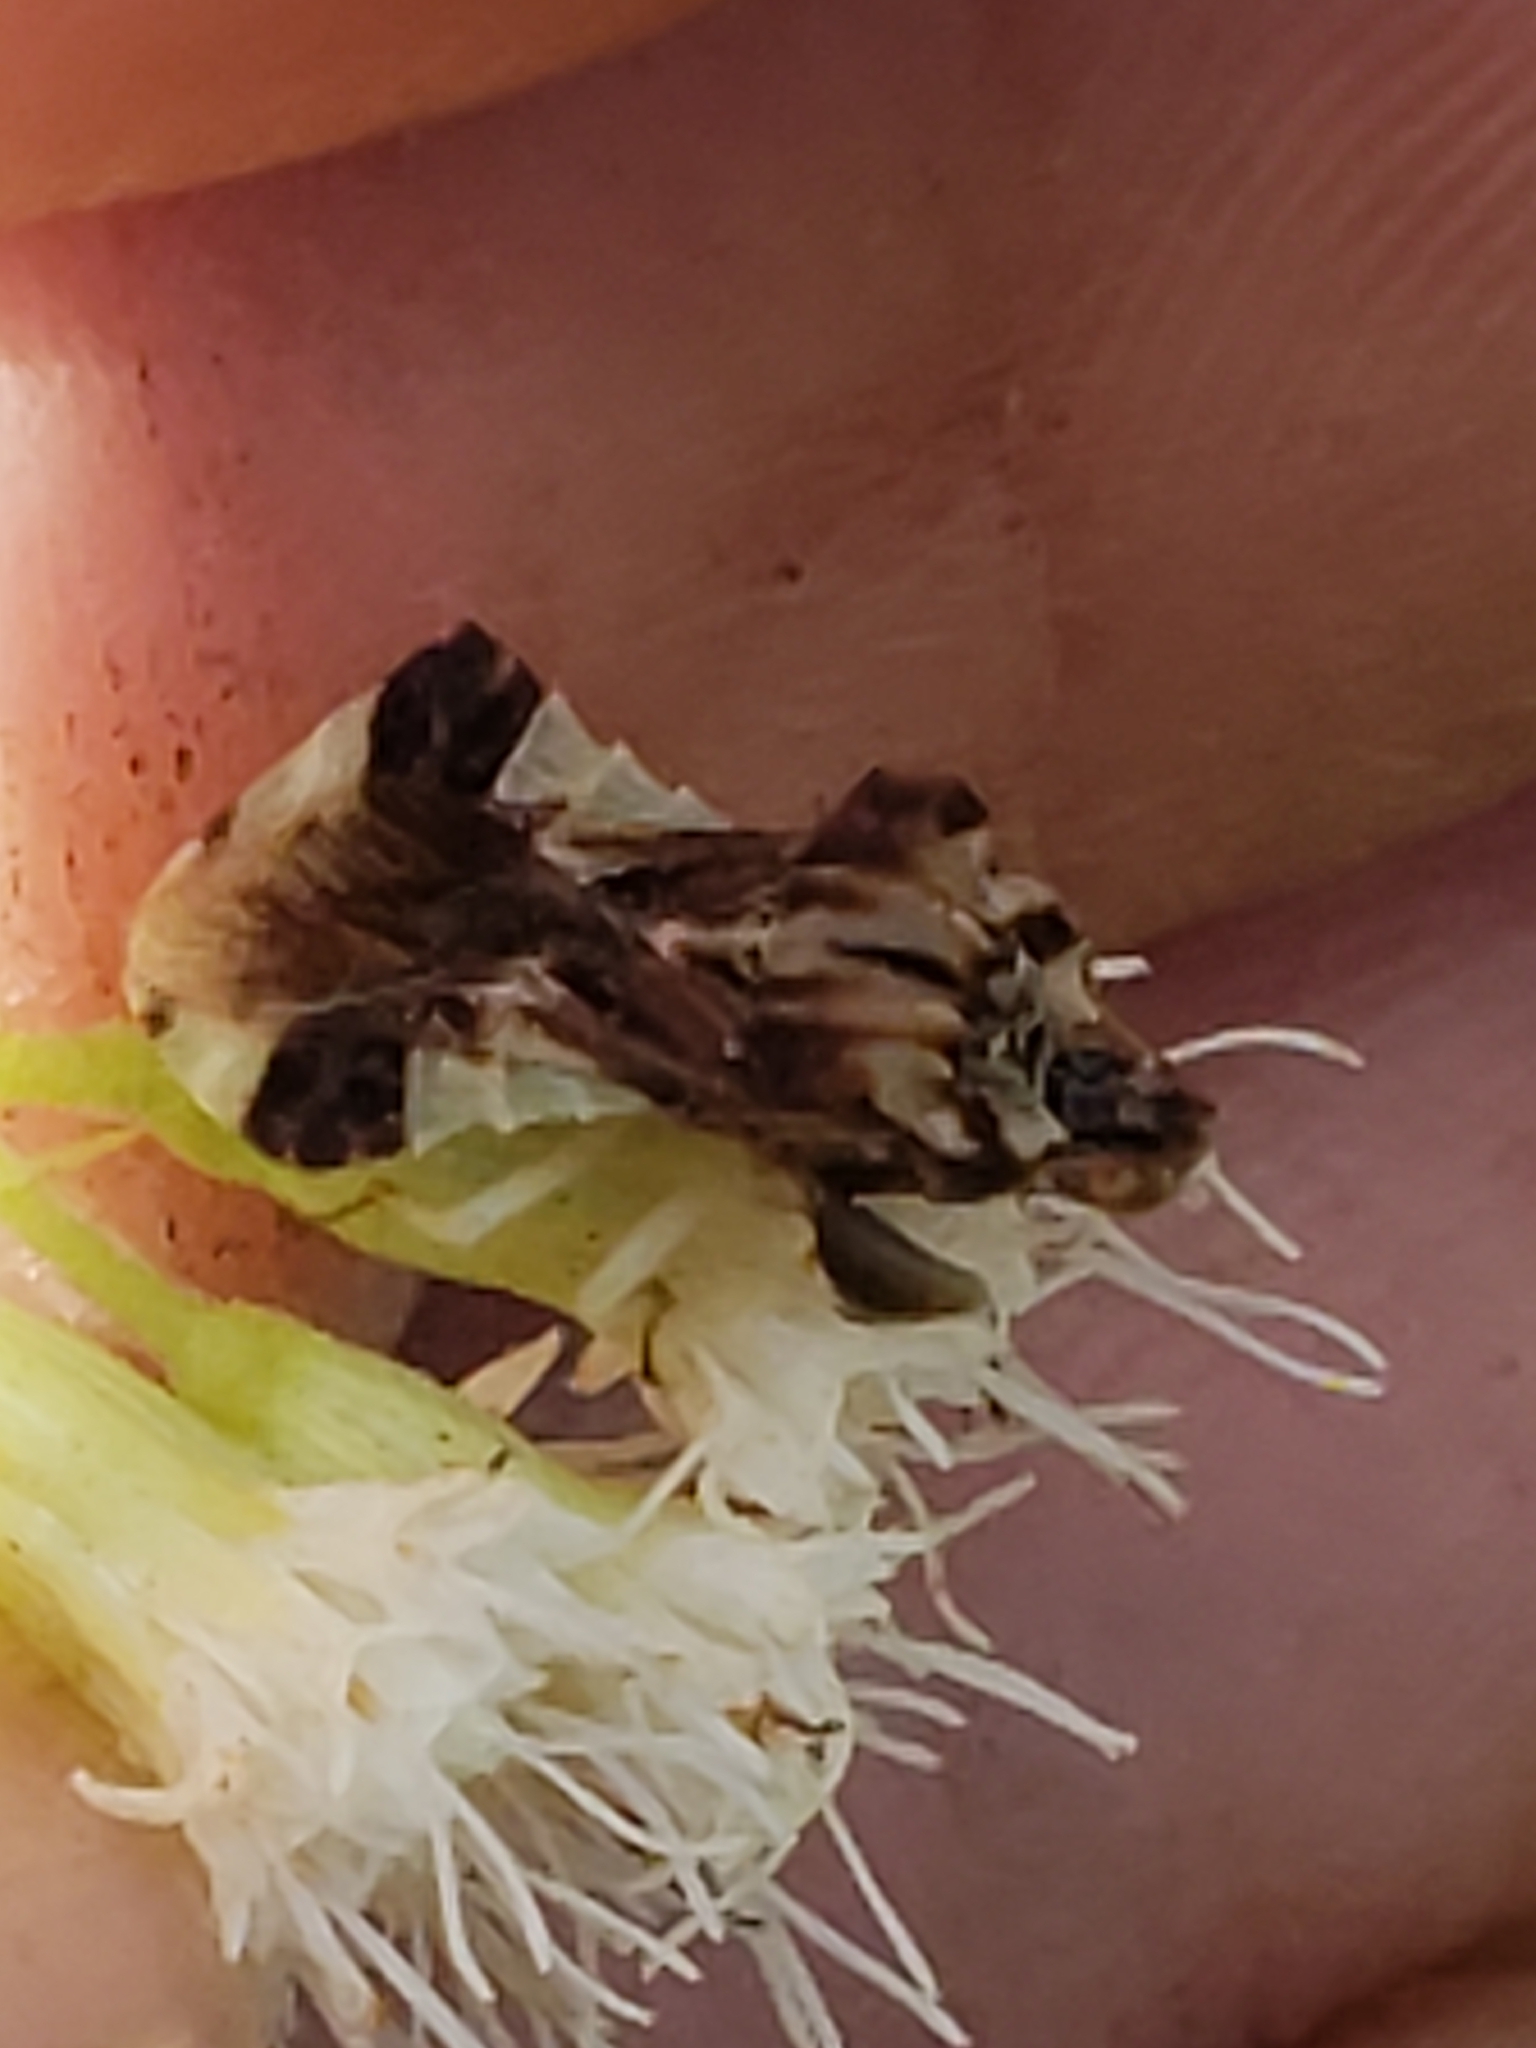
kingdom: Animalia
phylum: Arthropoda
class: Insecta
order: Hemiptera
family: Reduviidae
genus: Phymata
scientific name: Phymata fasciata
